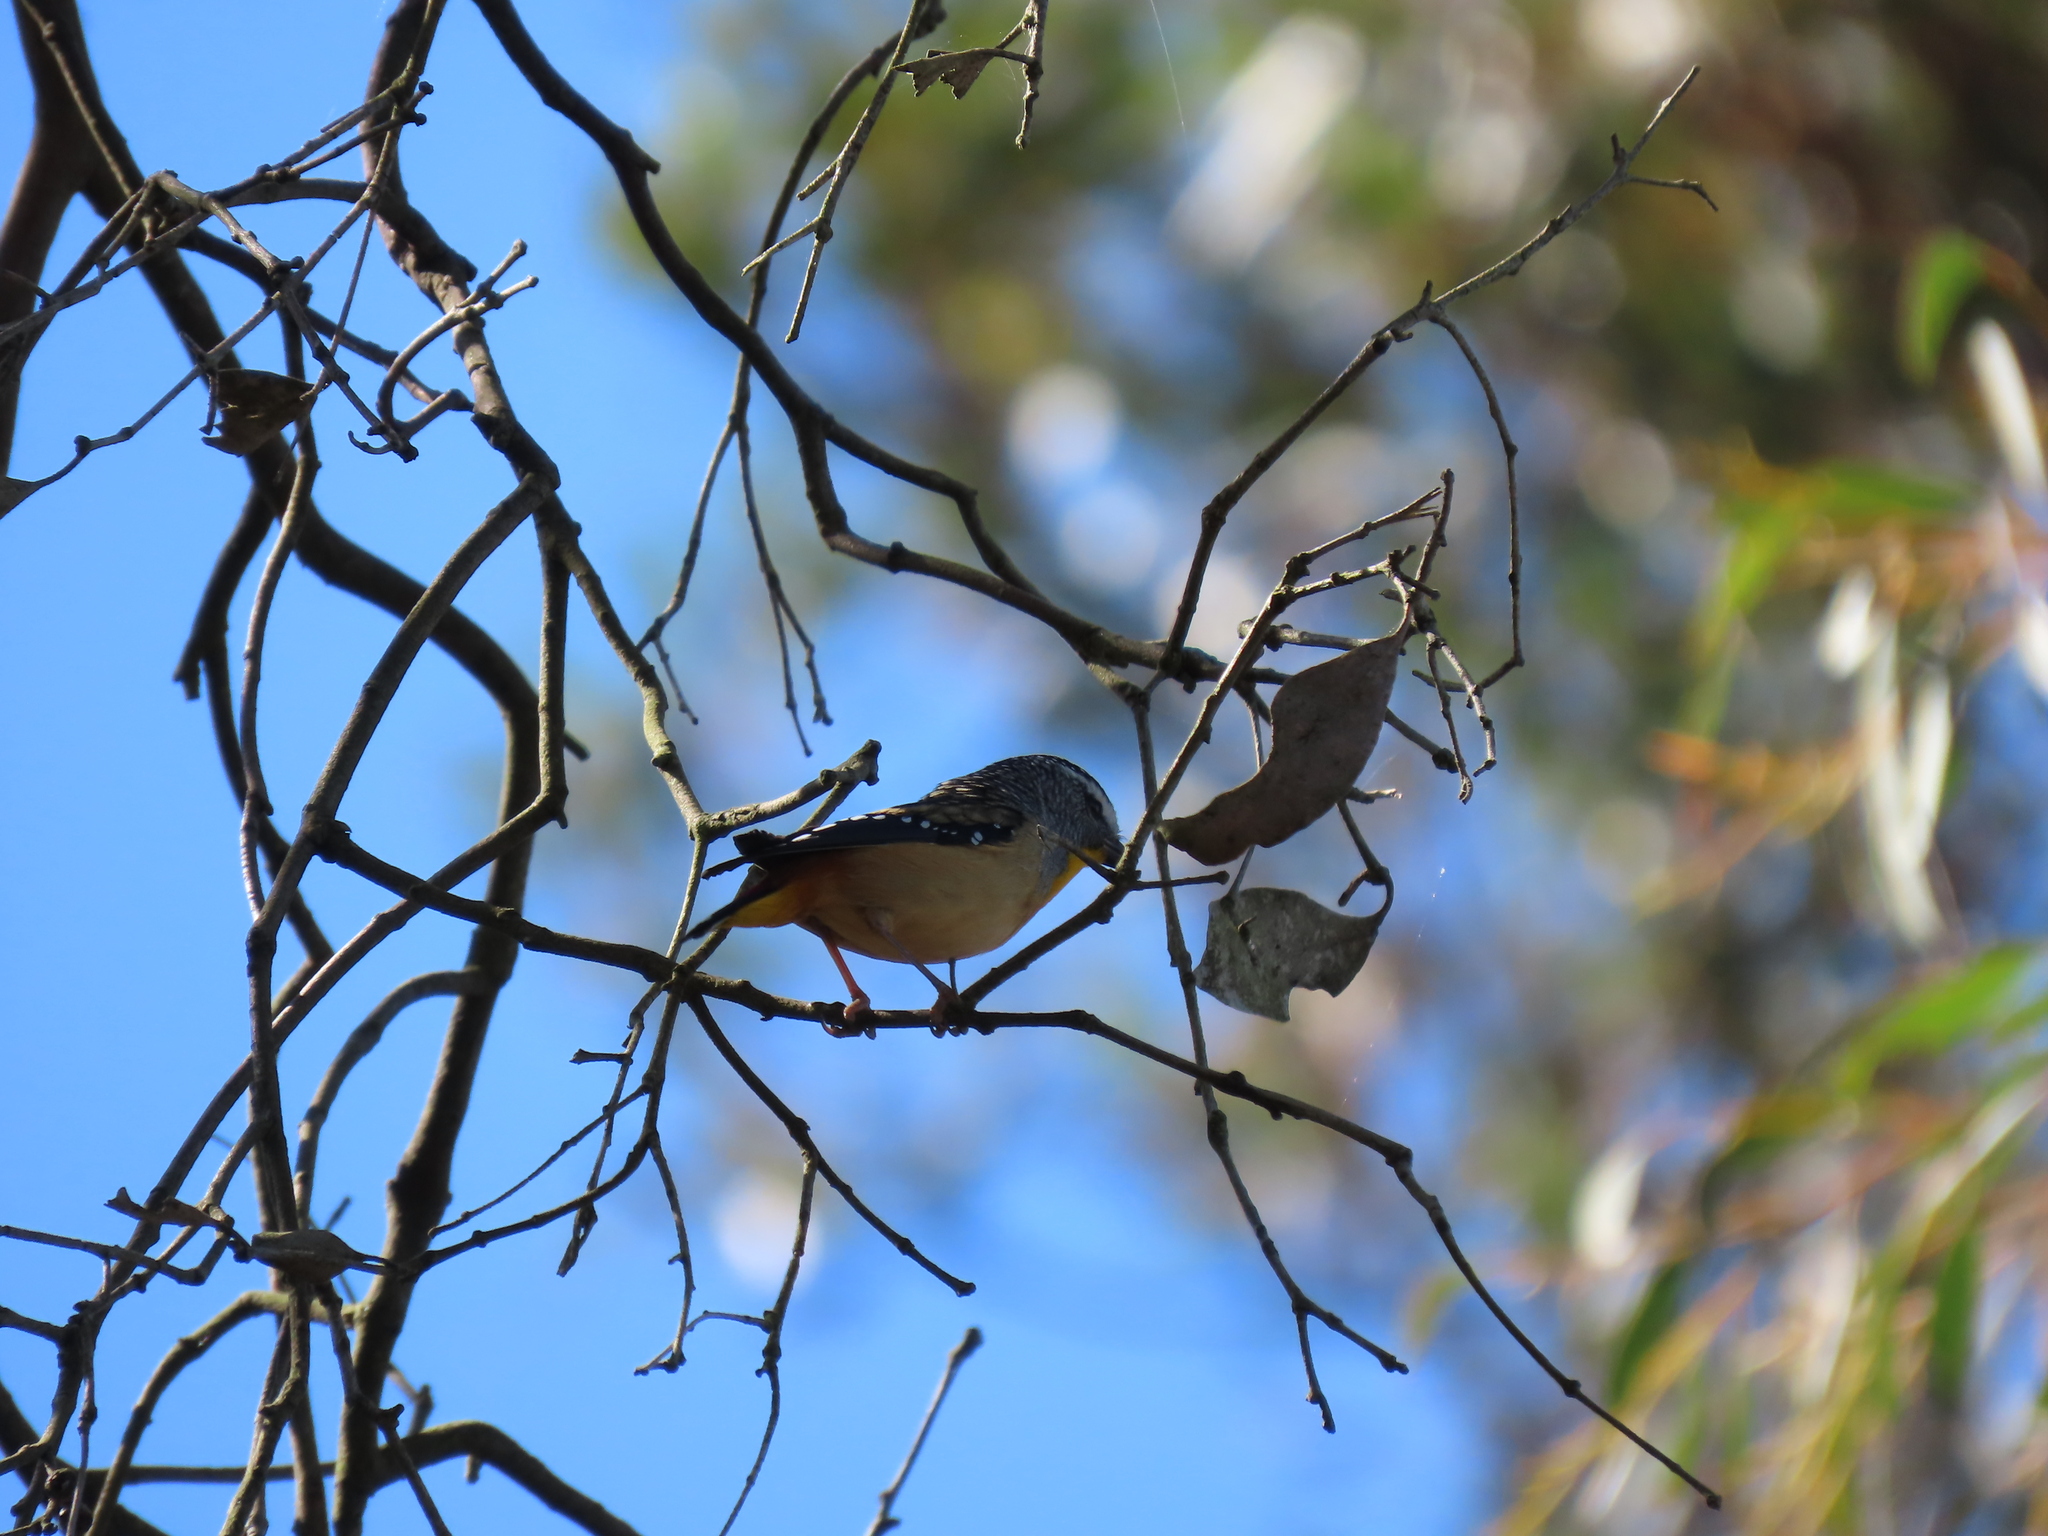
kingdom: Animalia
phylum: Chordata
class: Aves
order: Passeriformes
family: Pardalotidae
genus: Pardalotus
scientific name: Pardalotus punctatus
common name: Spotted pardalote
